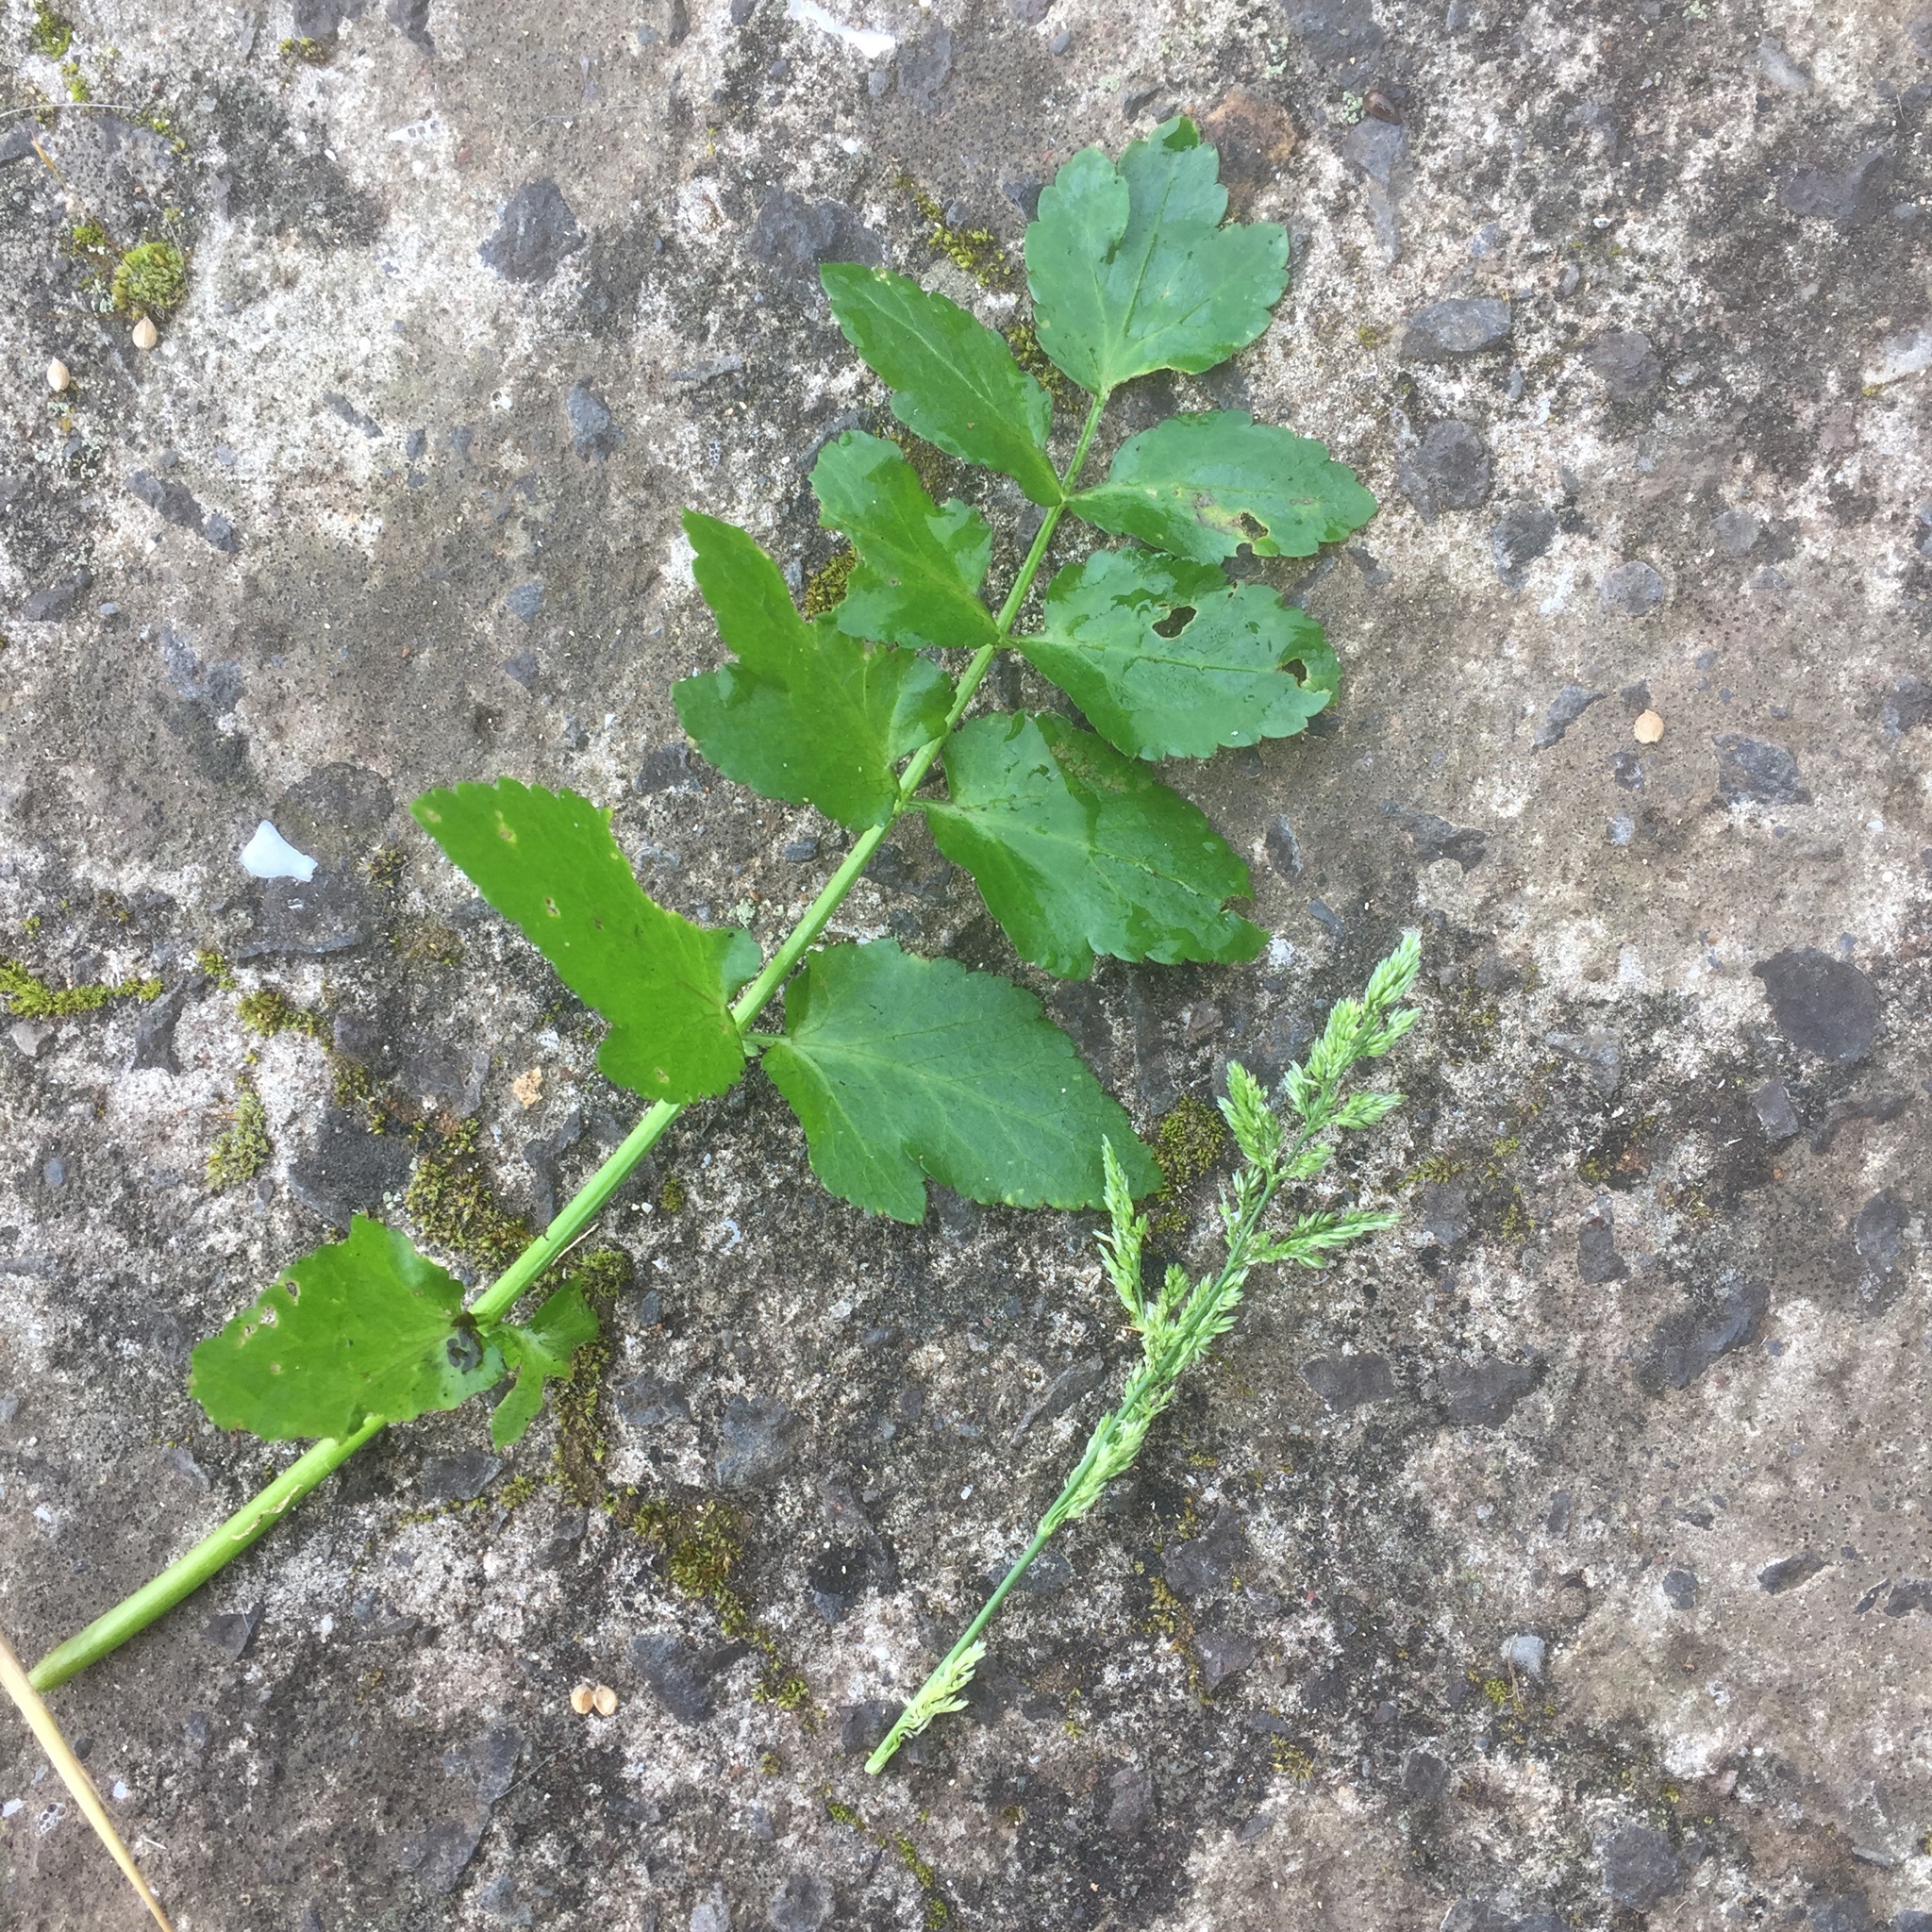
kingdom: Plantae
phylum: Tracheophyta
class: Liliopsida
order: Poales
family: Poaceae
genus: Polypogon
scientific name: Polypogon viridis
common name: Water bent
